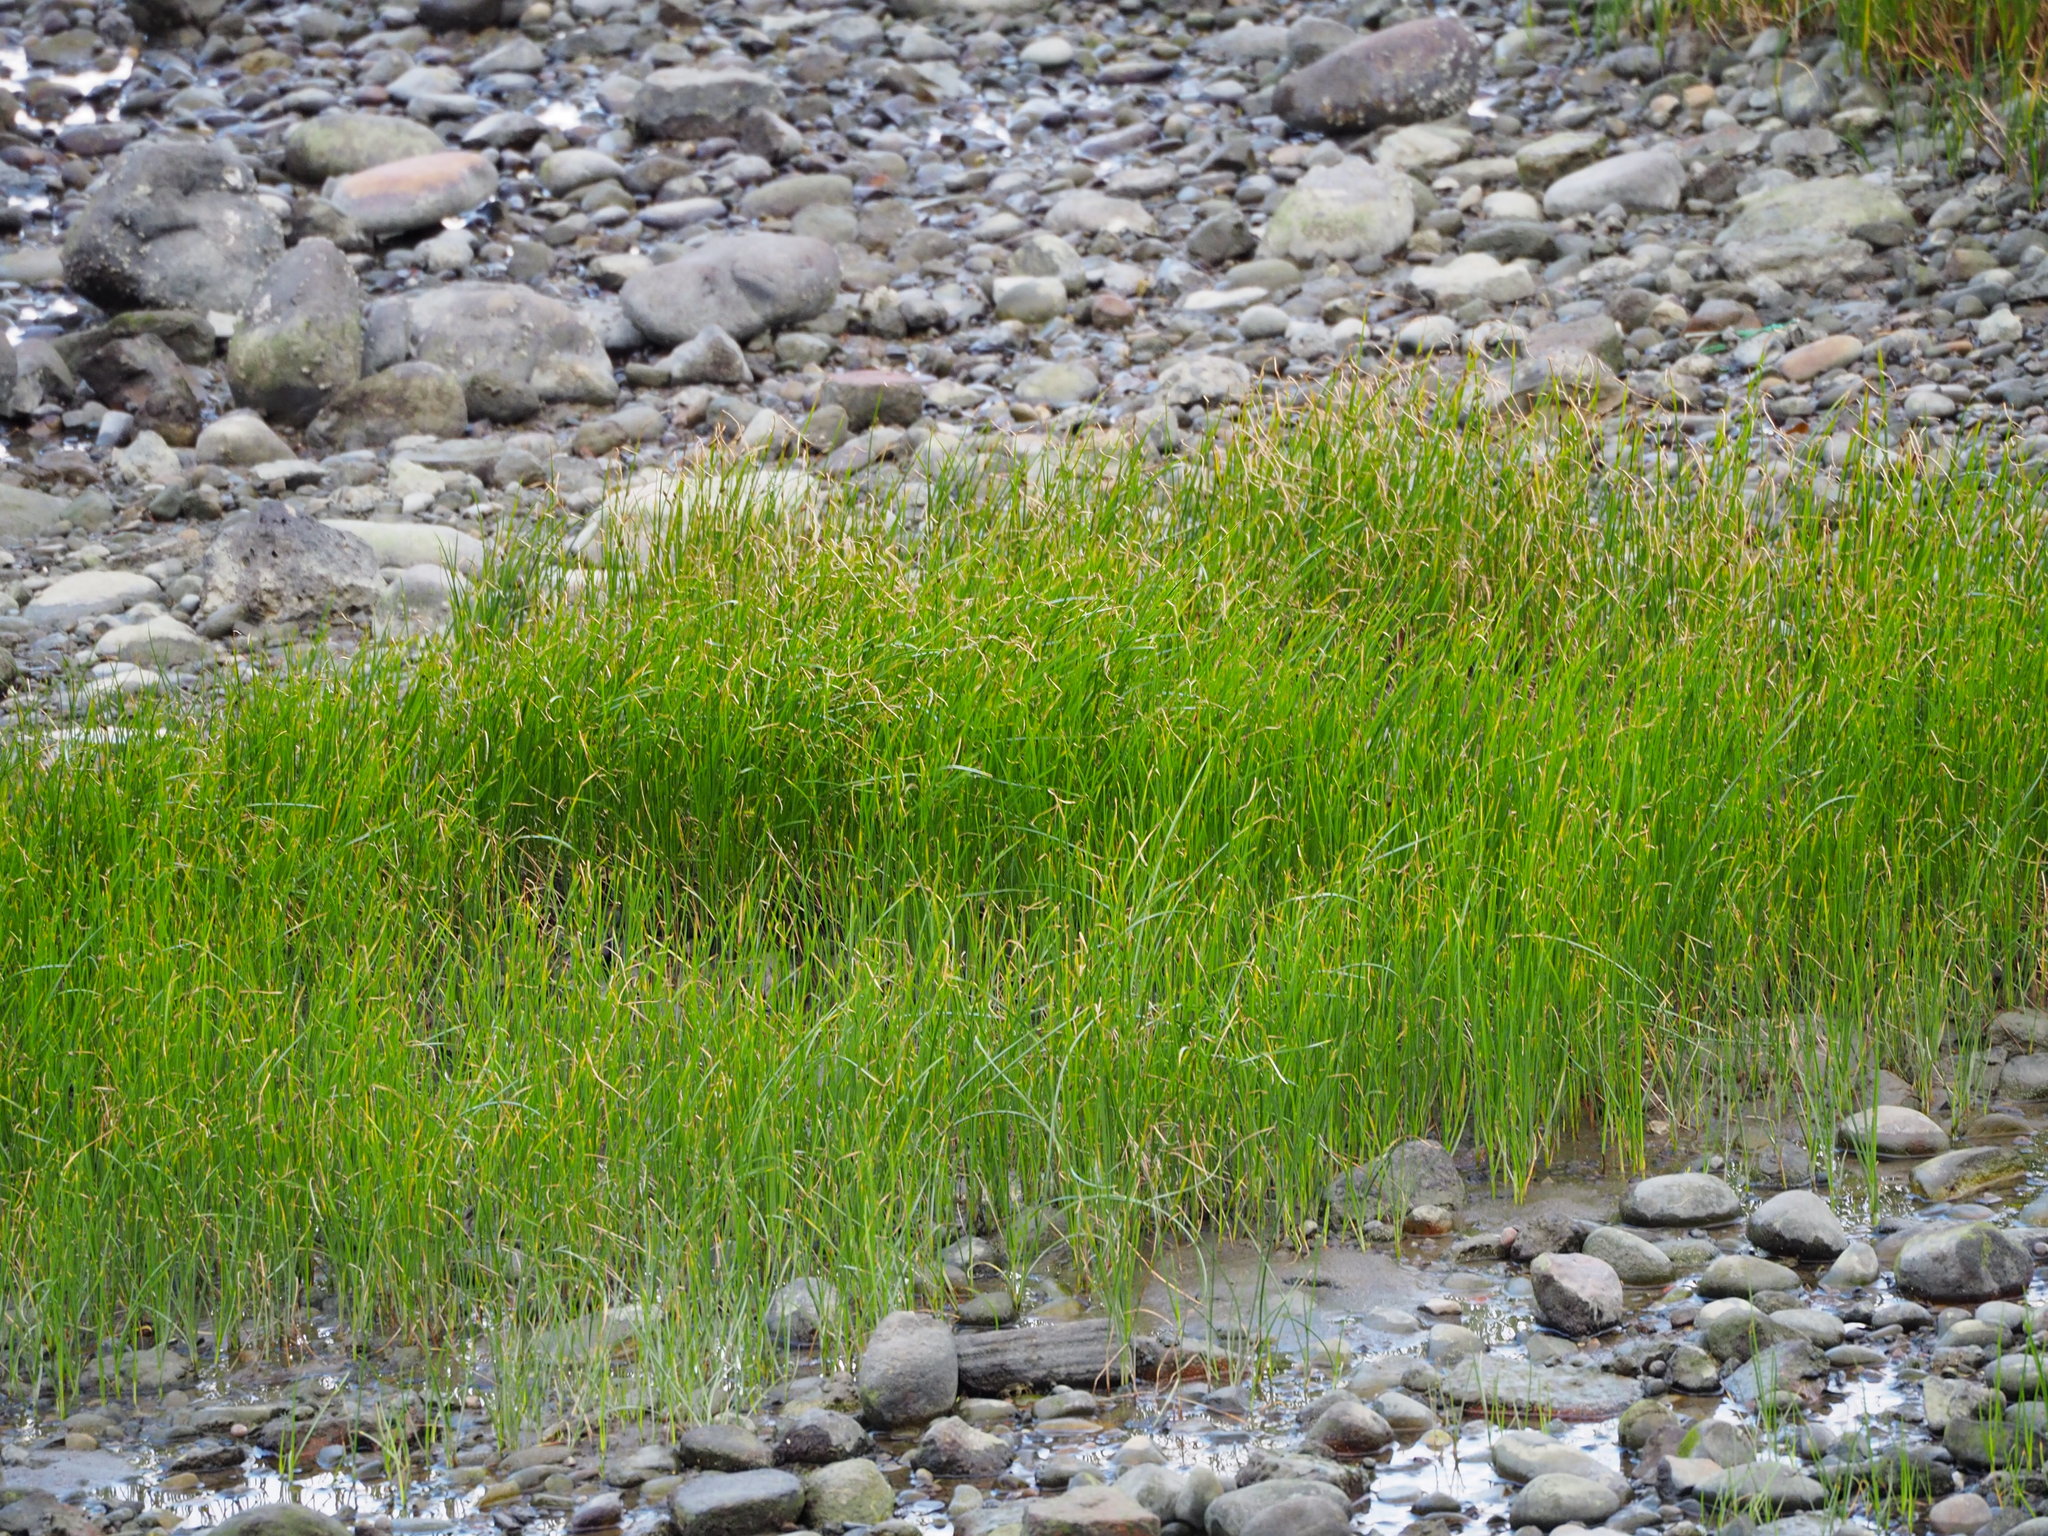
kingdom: Plantae
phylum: Tracheophyta
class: Liliopsida
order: Poales
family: Cyperaceae
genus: Bolboschoenus
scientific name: Bolboschoenus planiculmis
